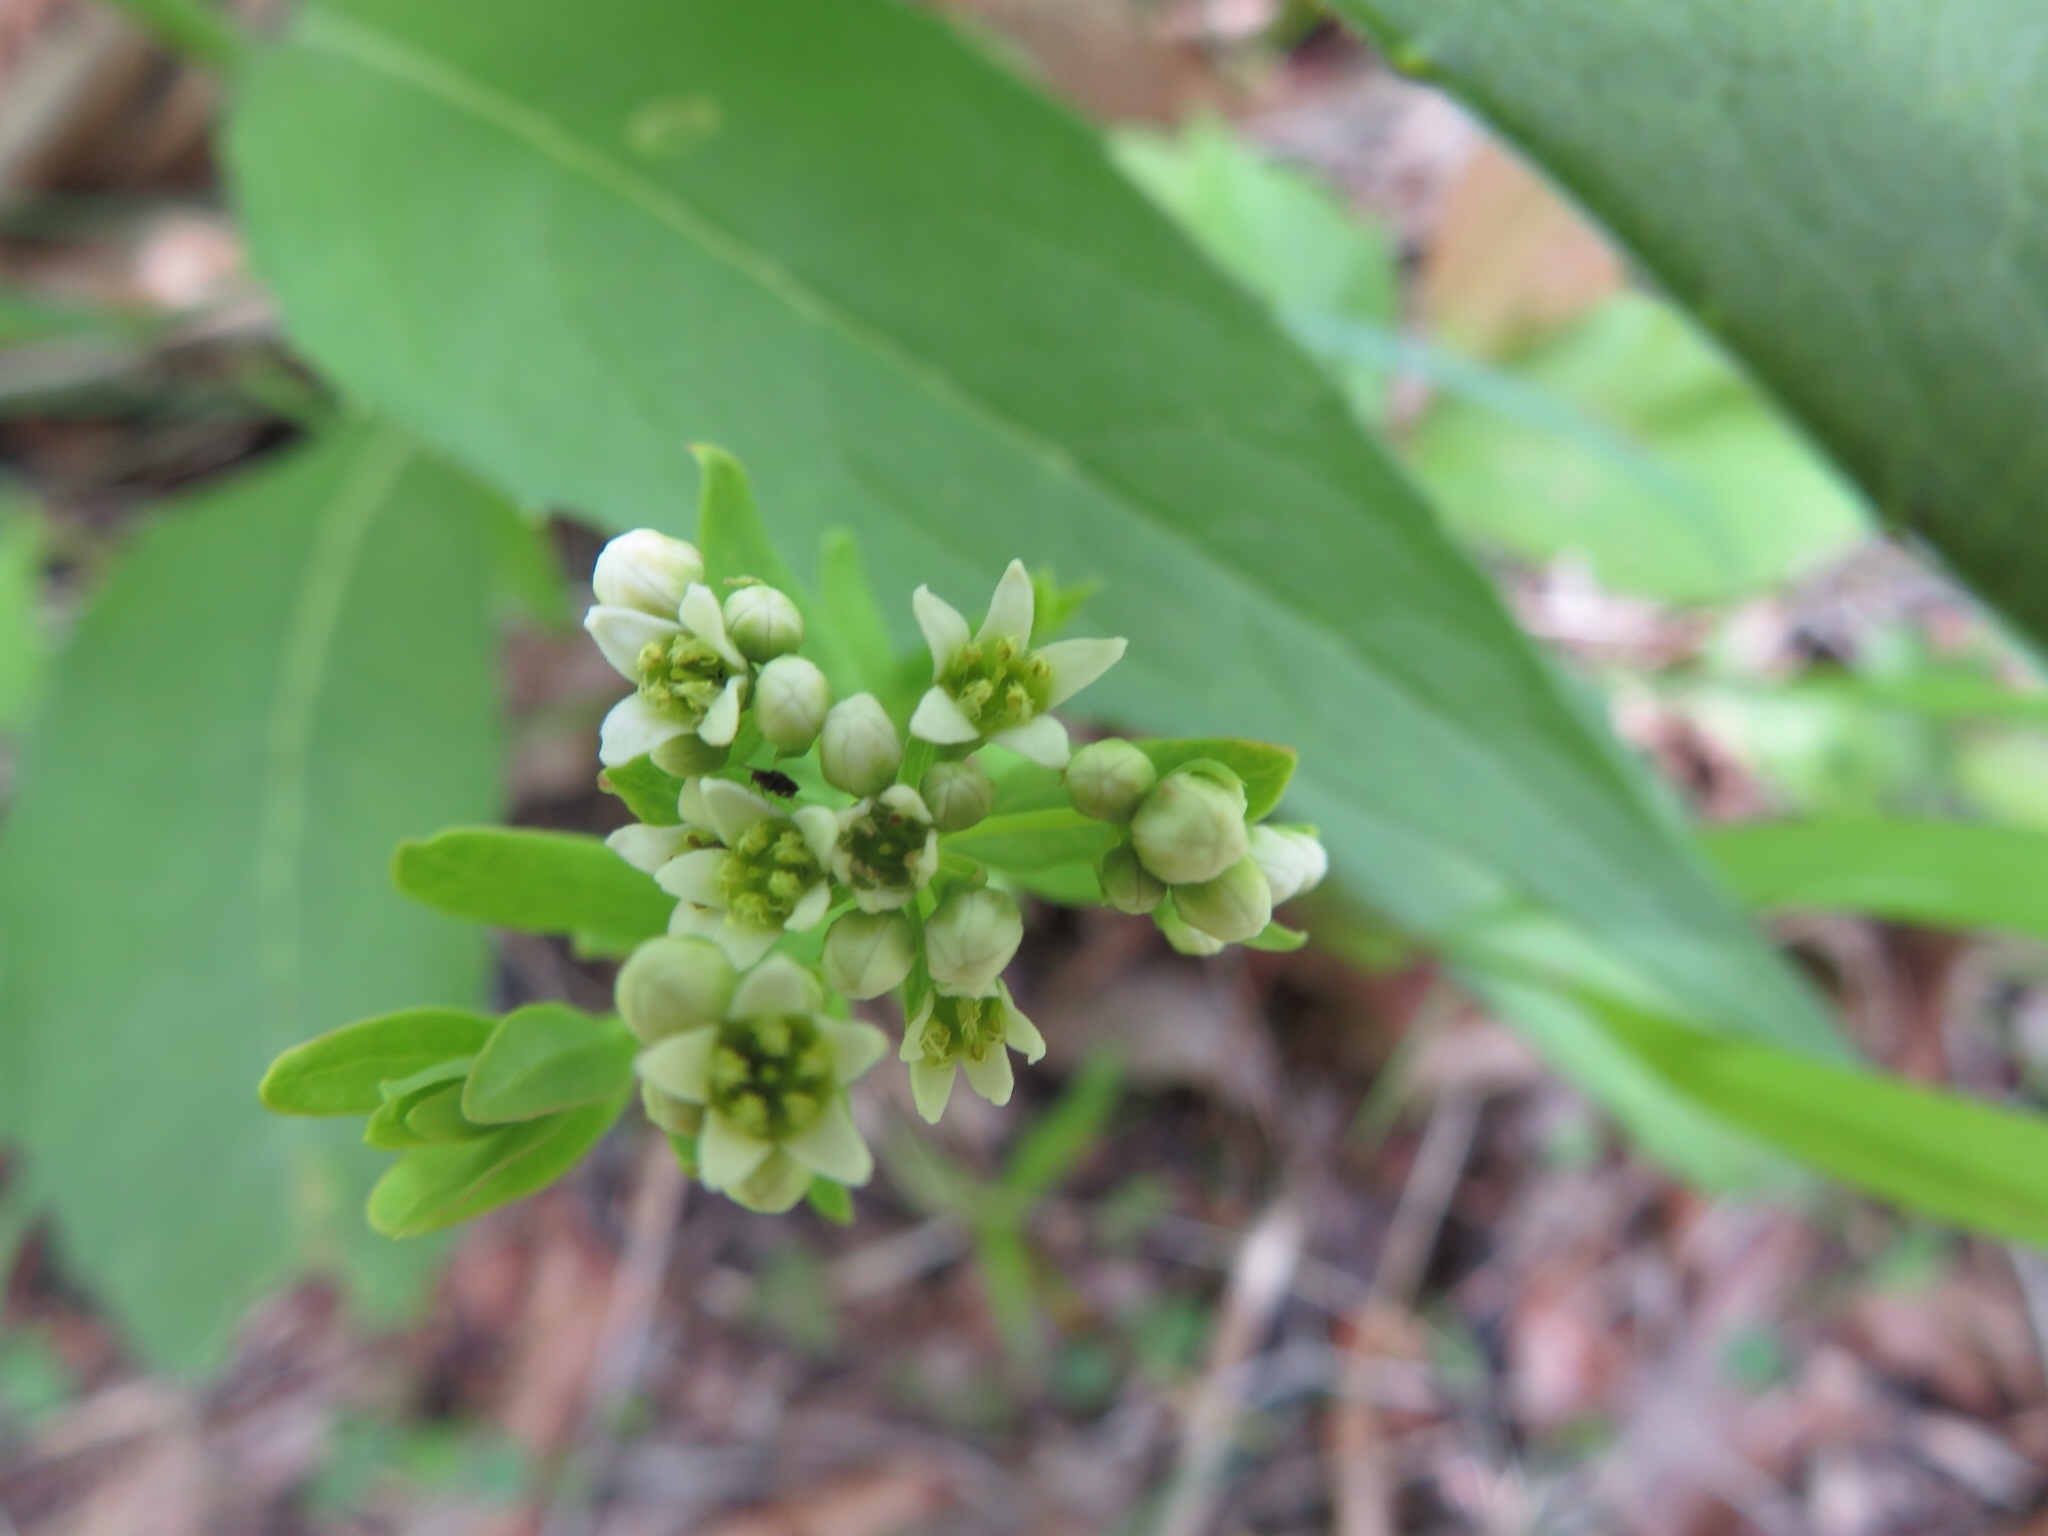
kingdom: Plantae
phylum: Tracheophyta
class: Magnoliopsida
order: Santalales
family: Comandraceae
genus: Comandra
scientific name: Comandra umbellata
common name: Bastard toadflax
